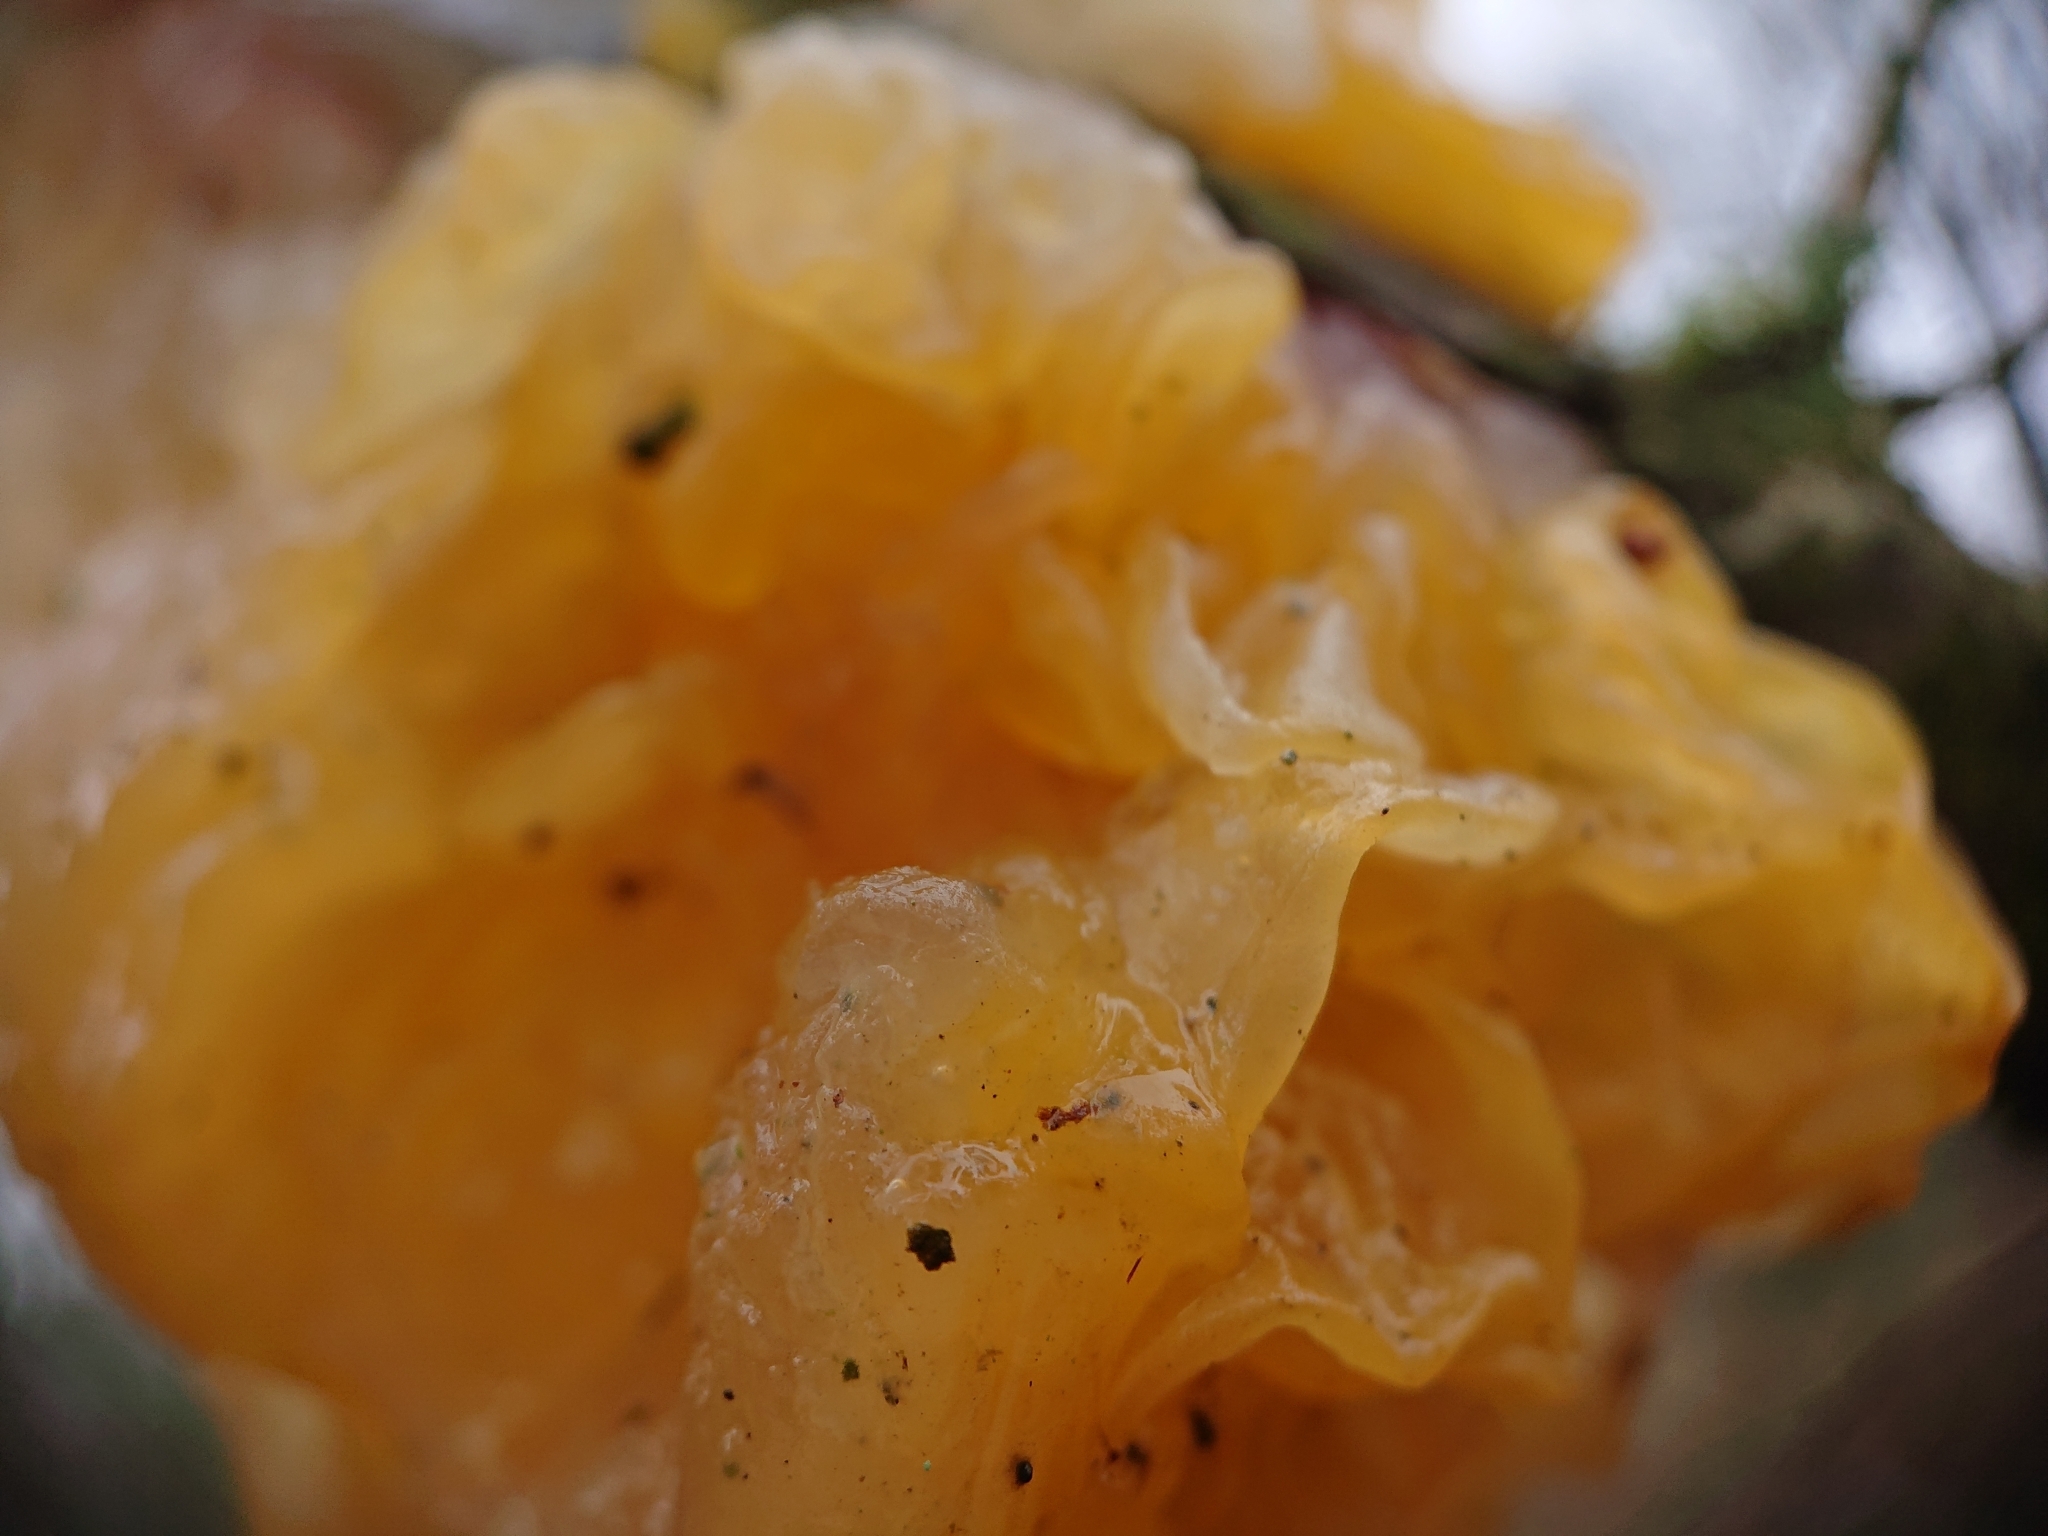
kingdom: Fungi
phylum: Basidiomycota
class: Tremellomycetes
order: Tremellales
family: Tremellaceae
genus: Tremella
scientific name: Tremella mesenterica
